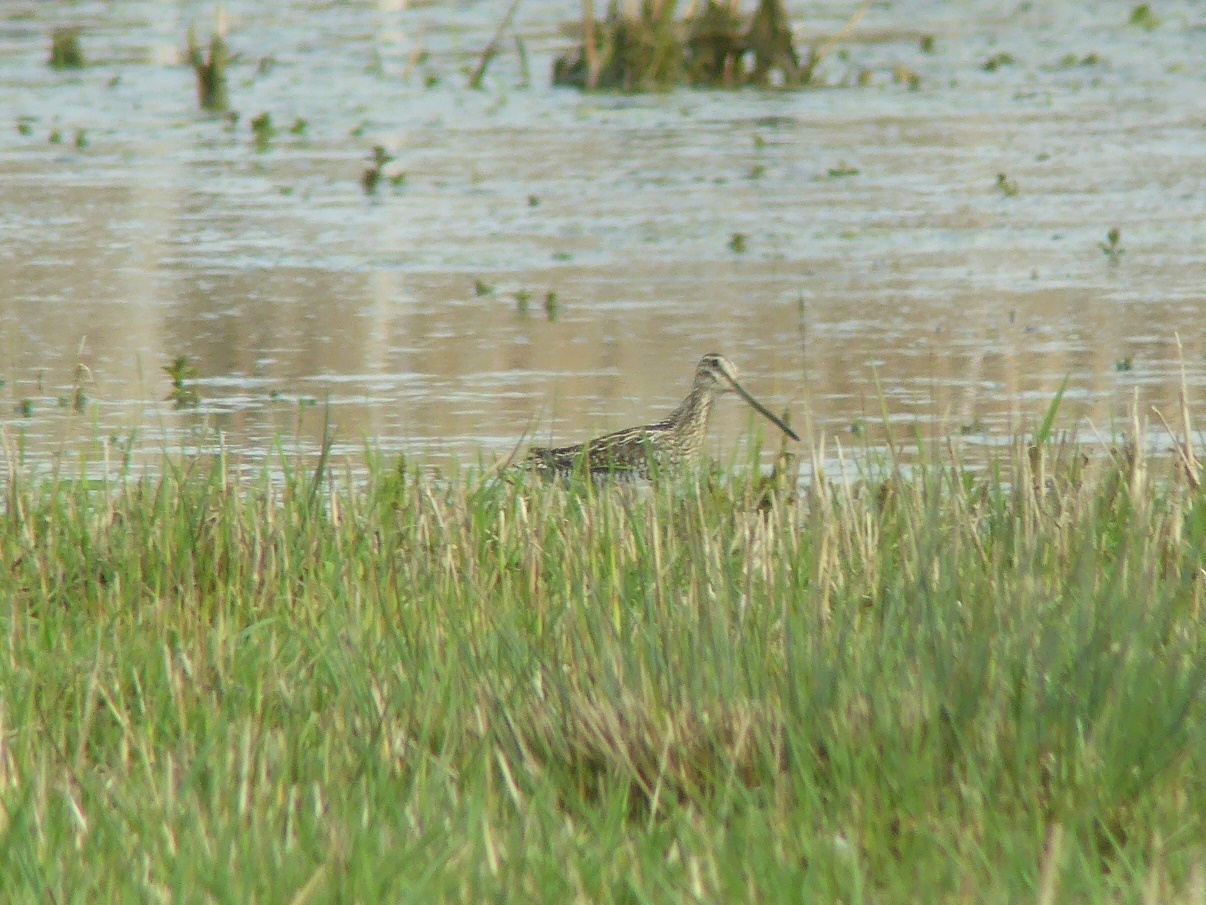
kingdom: Animalia
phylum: Chordata
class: Aves
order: Charadriiformes
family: Scolopacidae
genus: Gallinago
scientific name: Gallinago gallinago
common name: Common snipe
